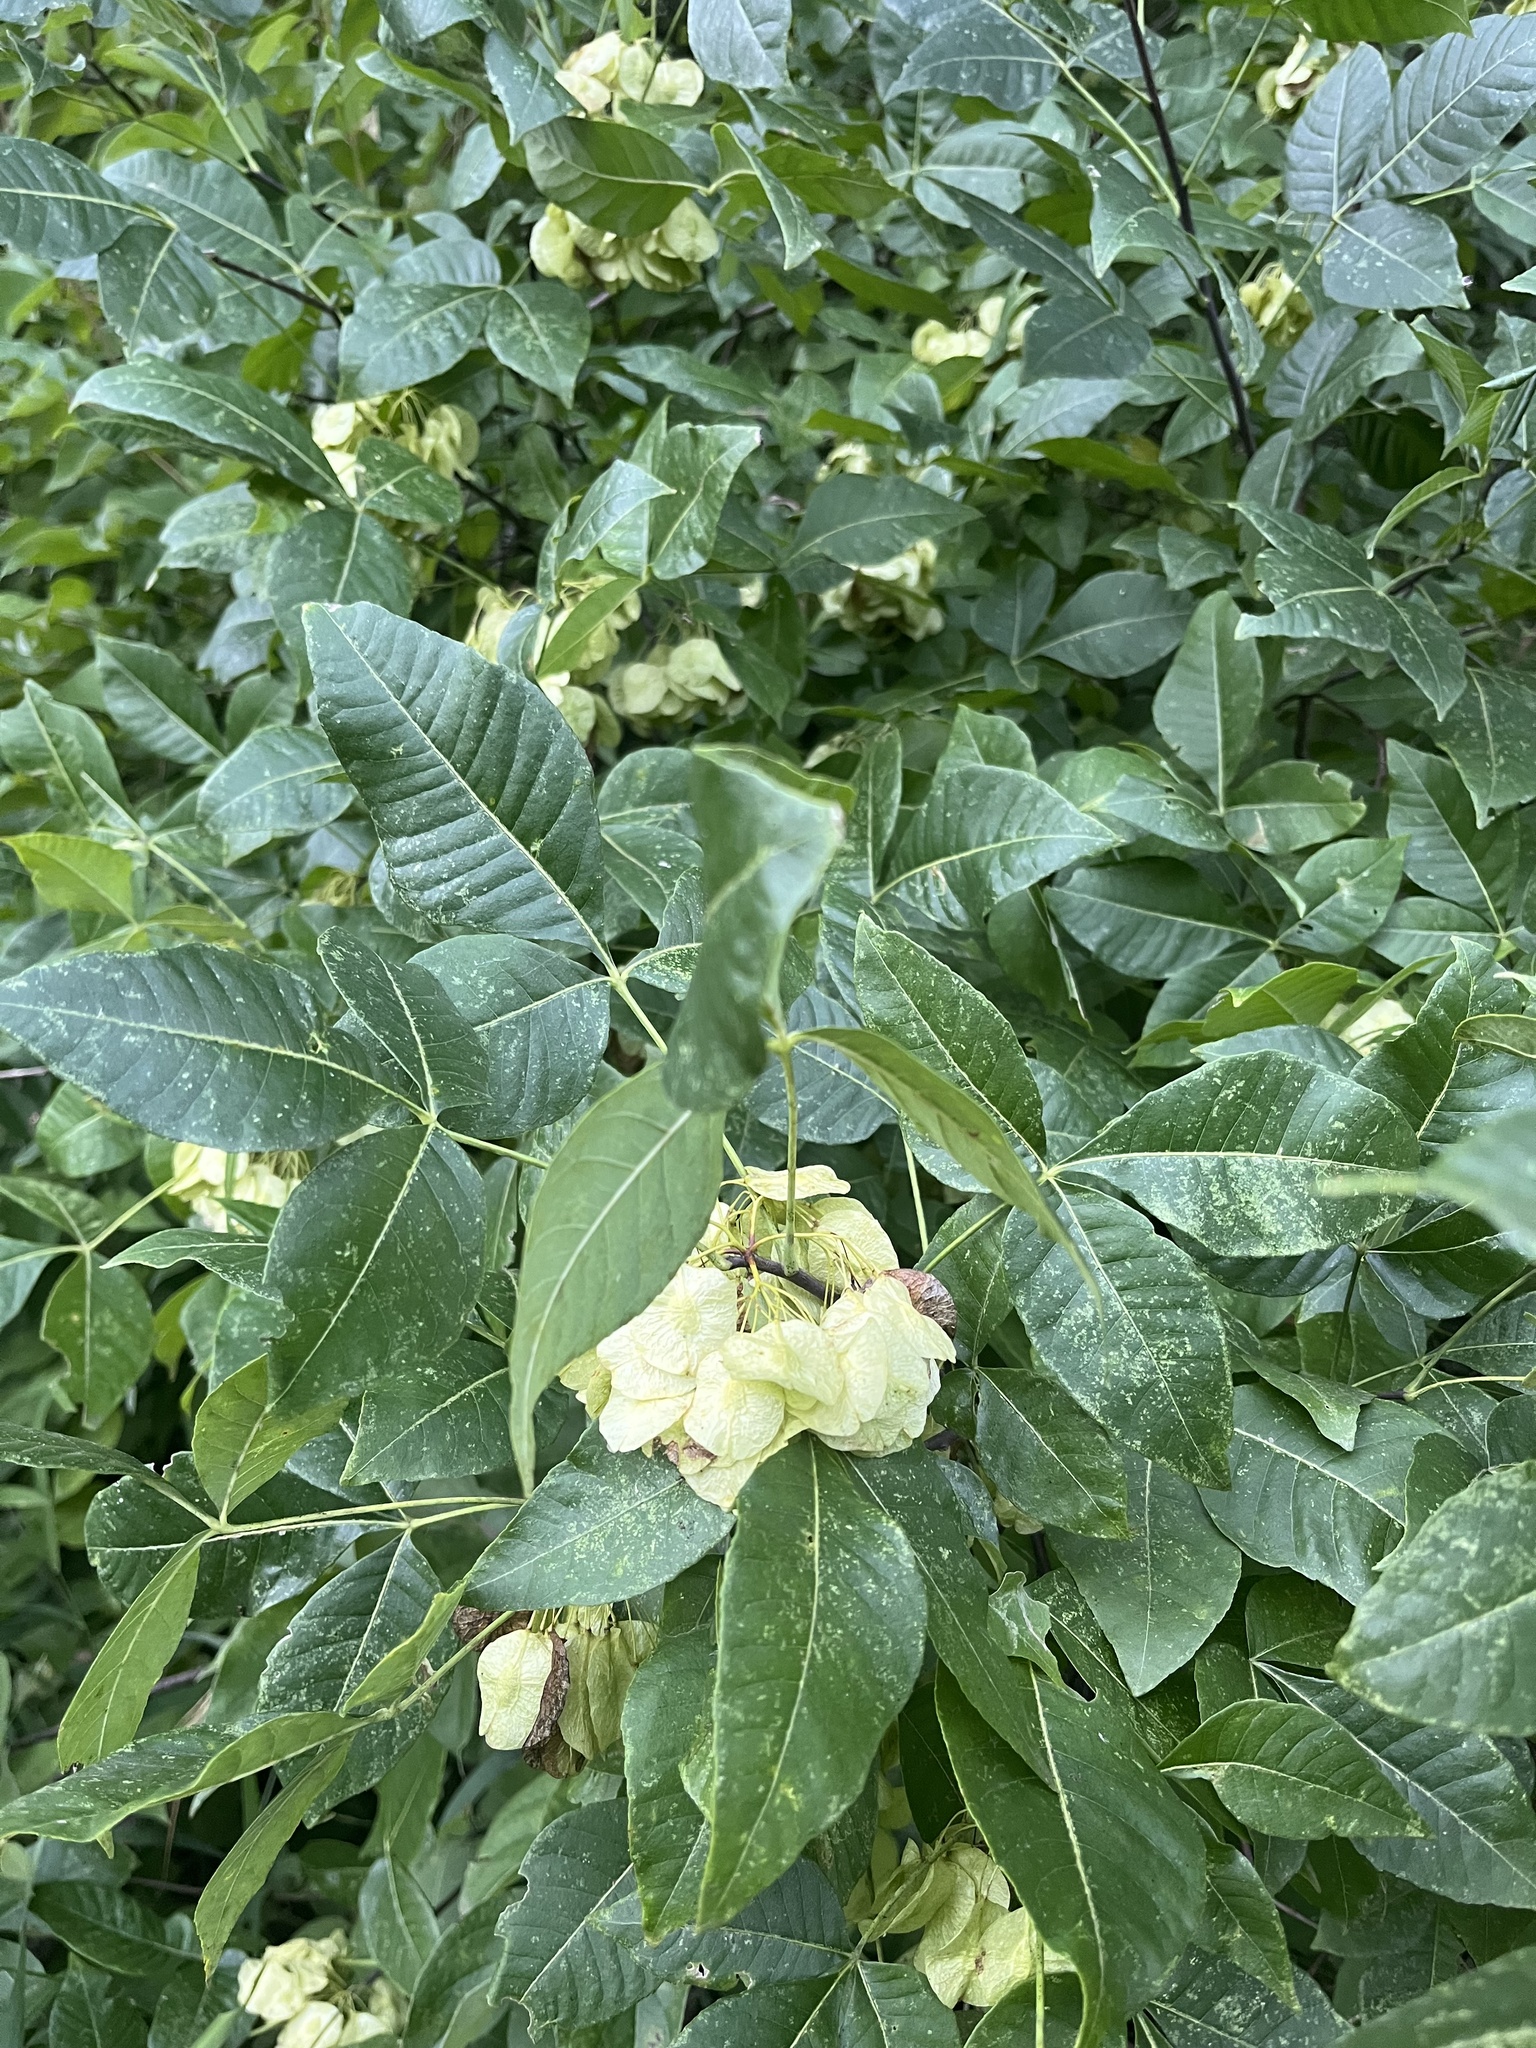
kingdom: Plantae
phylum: Tracheophyta
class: Magnoliopsida
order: Sapindales
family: Rutaceae
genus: Ptelea
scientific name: Ptelea trifoliata
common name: Common hop-tree
